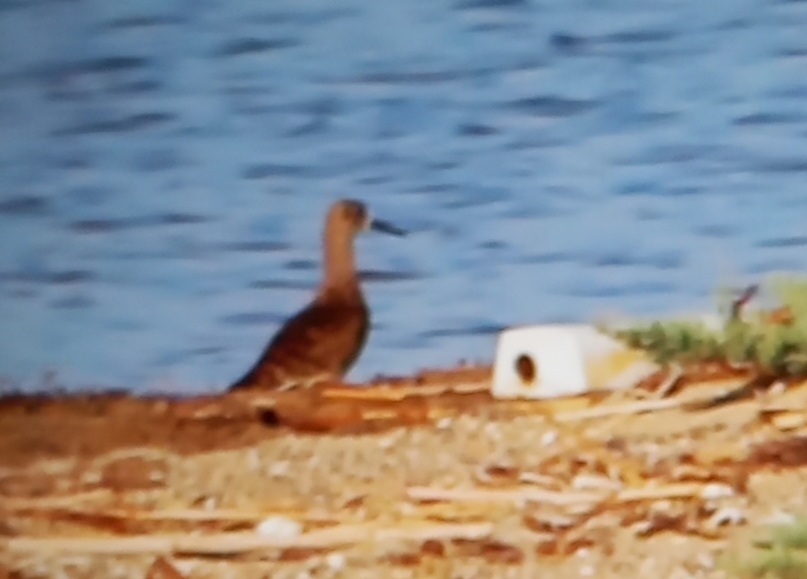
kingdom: Animalia
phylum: Chordata
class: Aves
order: Charadriiformes
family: Scolopacidae
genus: Calidris
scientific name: Calidris pugnax
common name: Ruff
